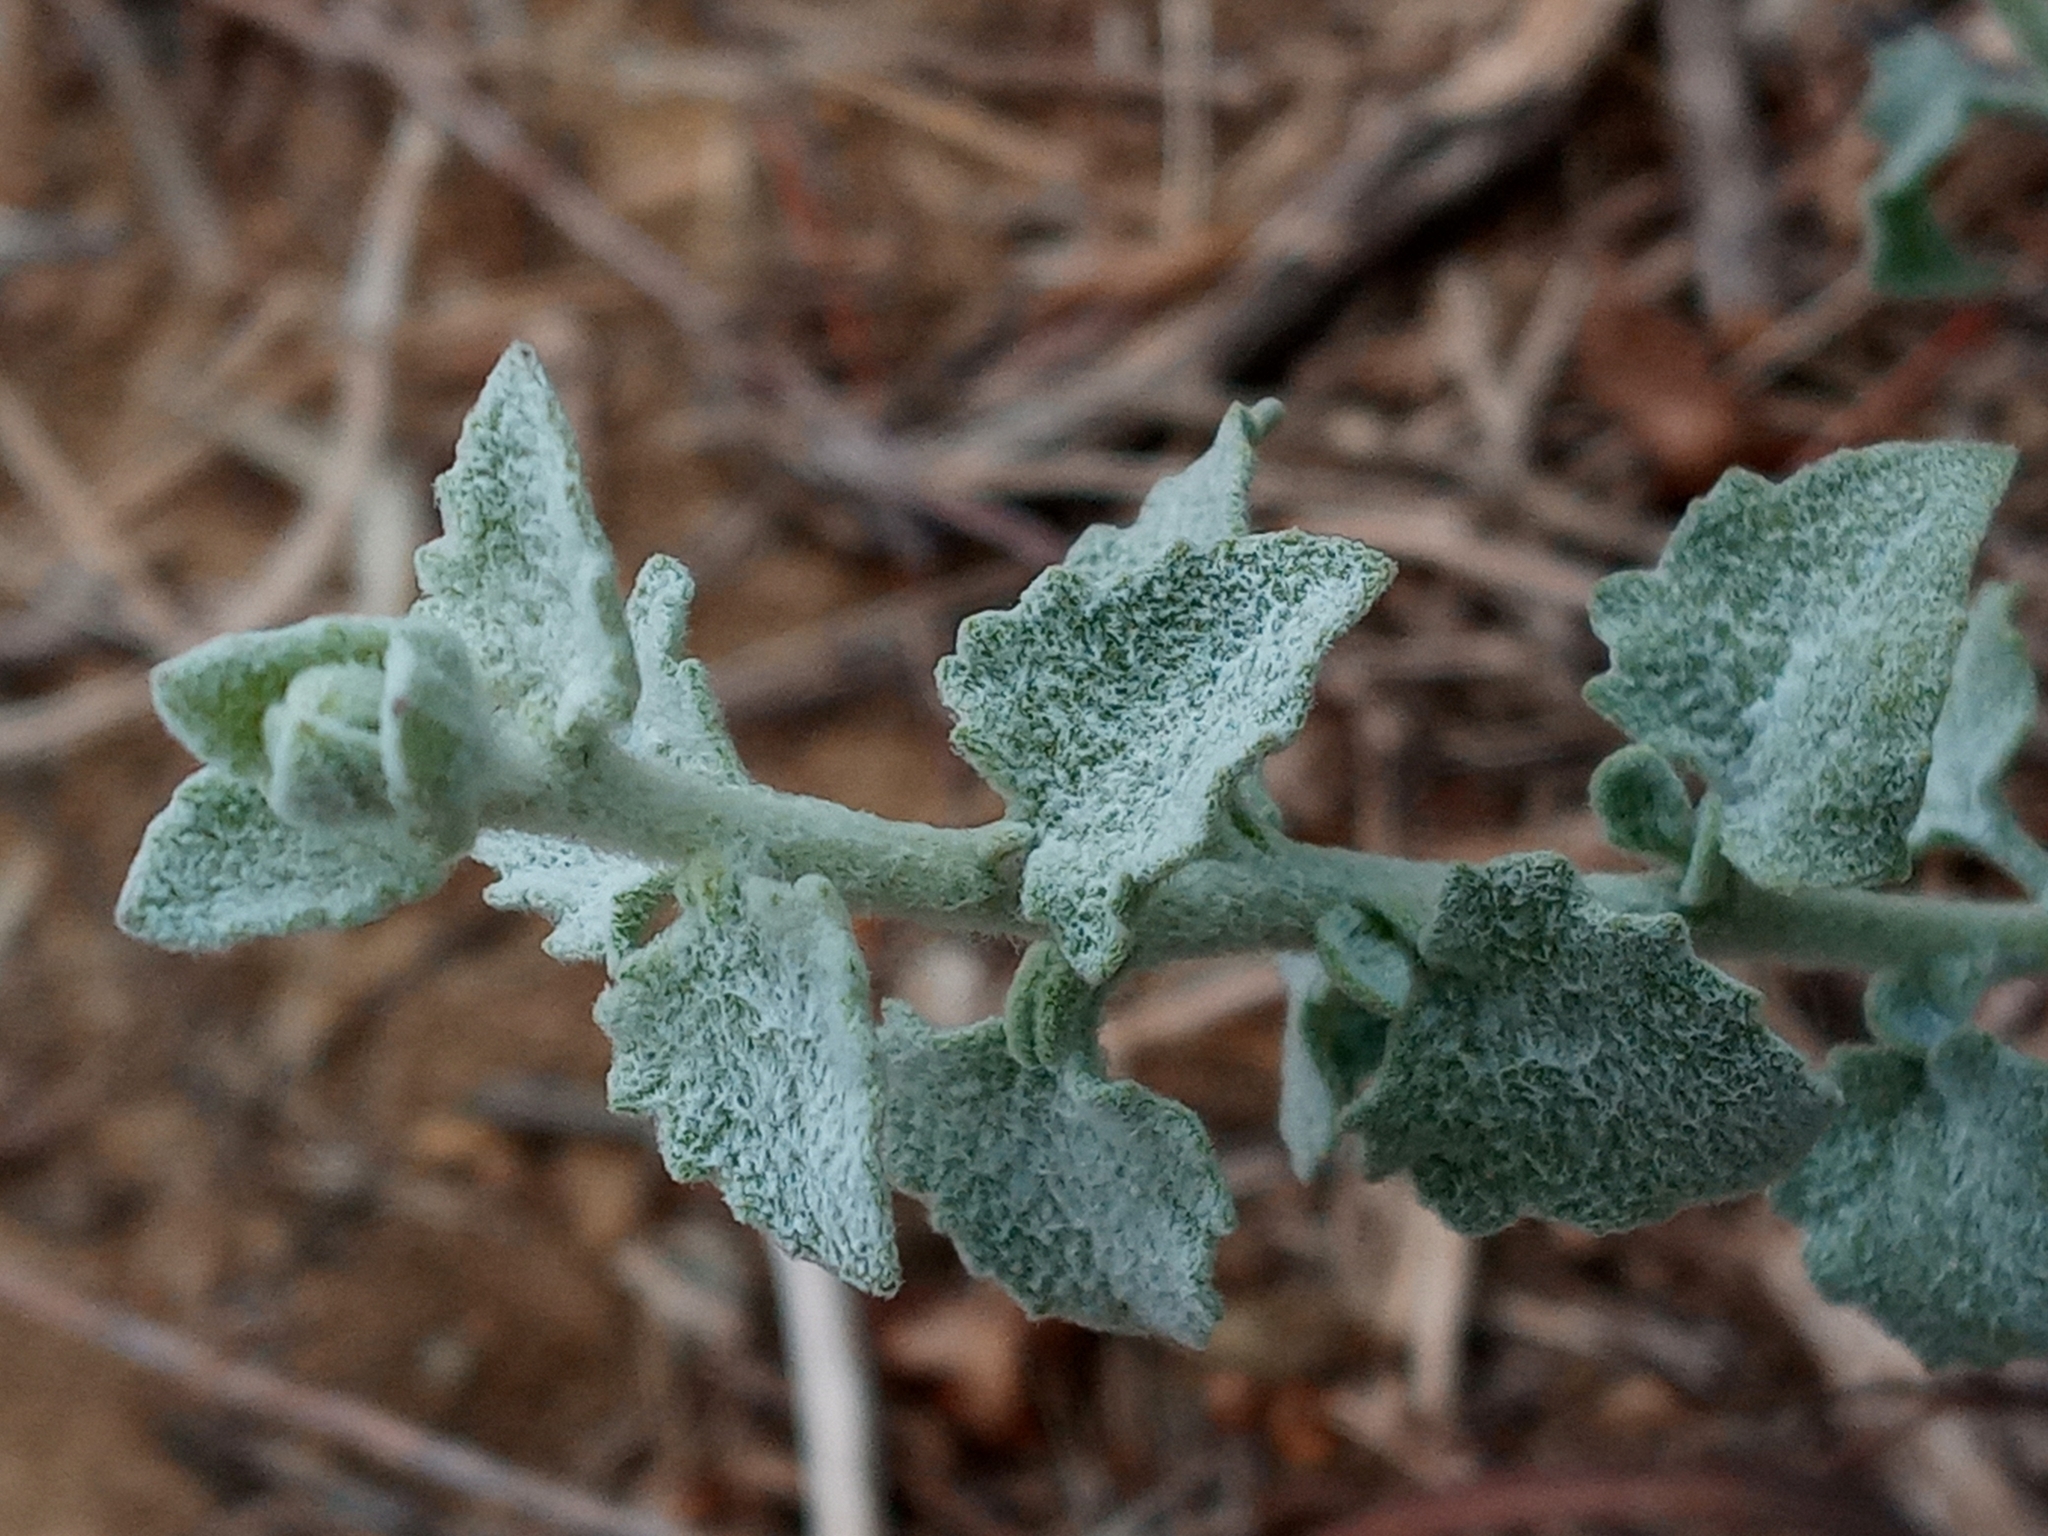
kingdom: Plantae
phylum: Tracheophyta
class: Magnoliopsida
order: Asterales
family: Asteraceae
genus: Brickellia
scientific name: Brickellia nevinii
